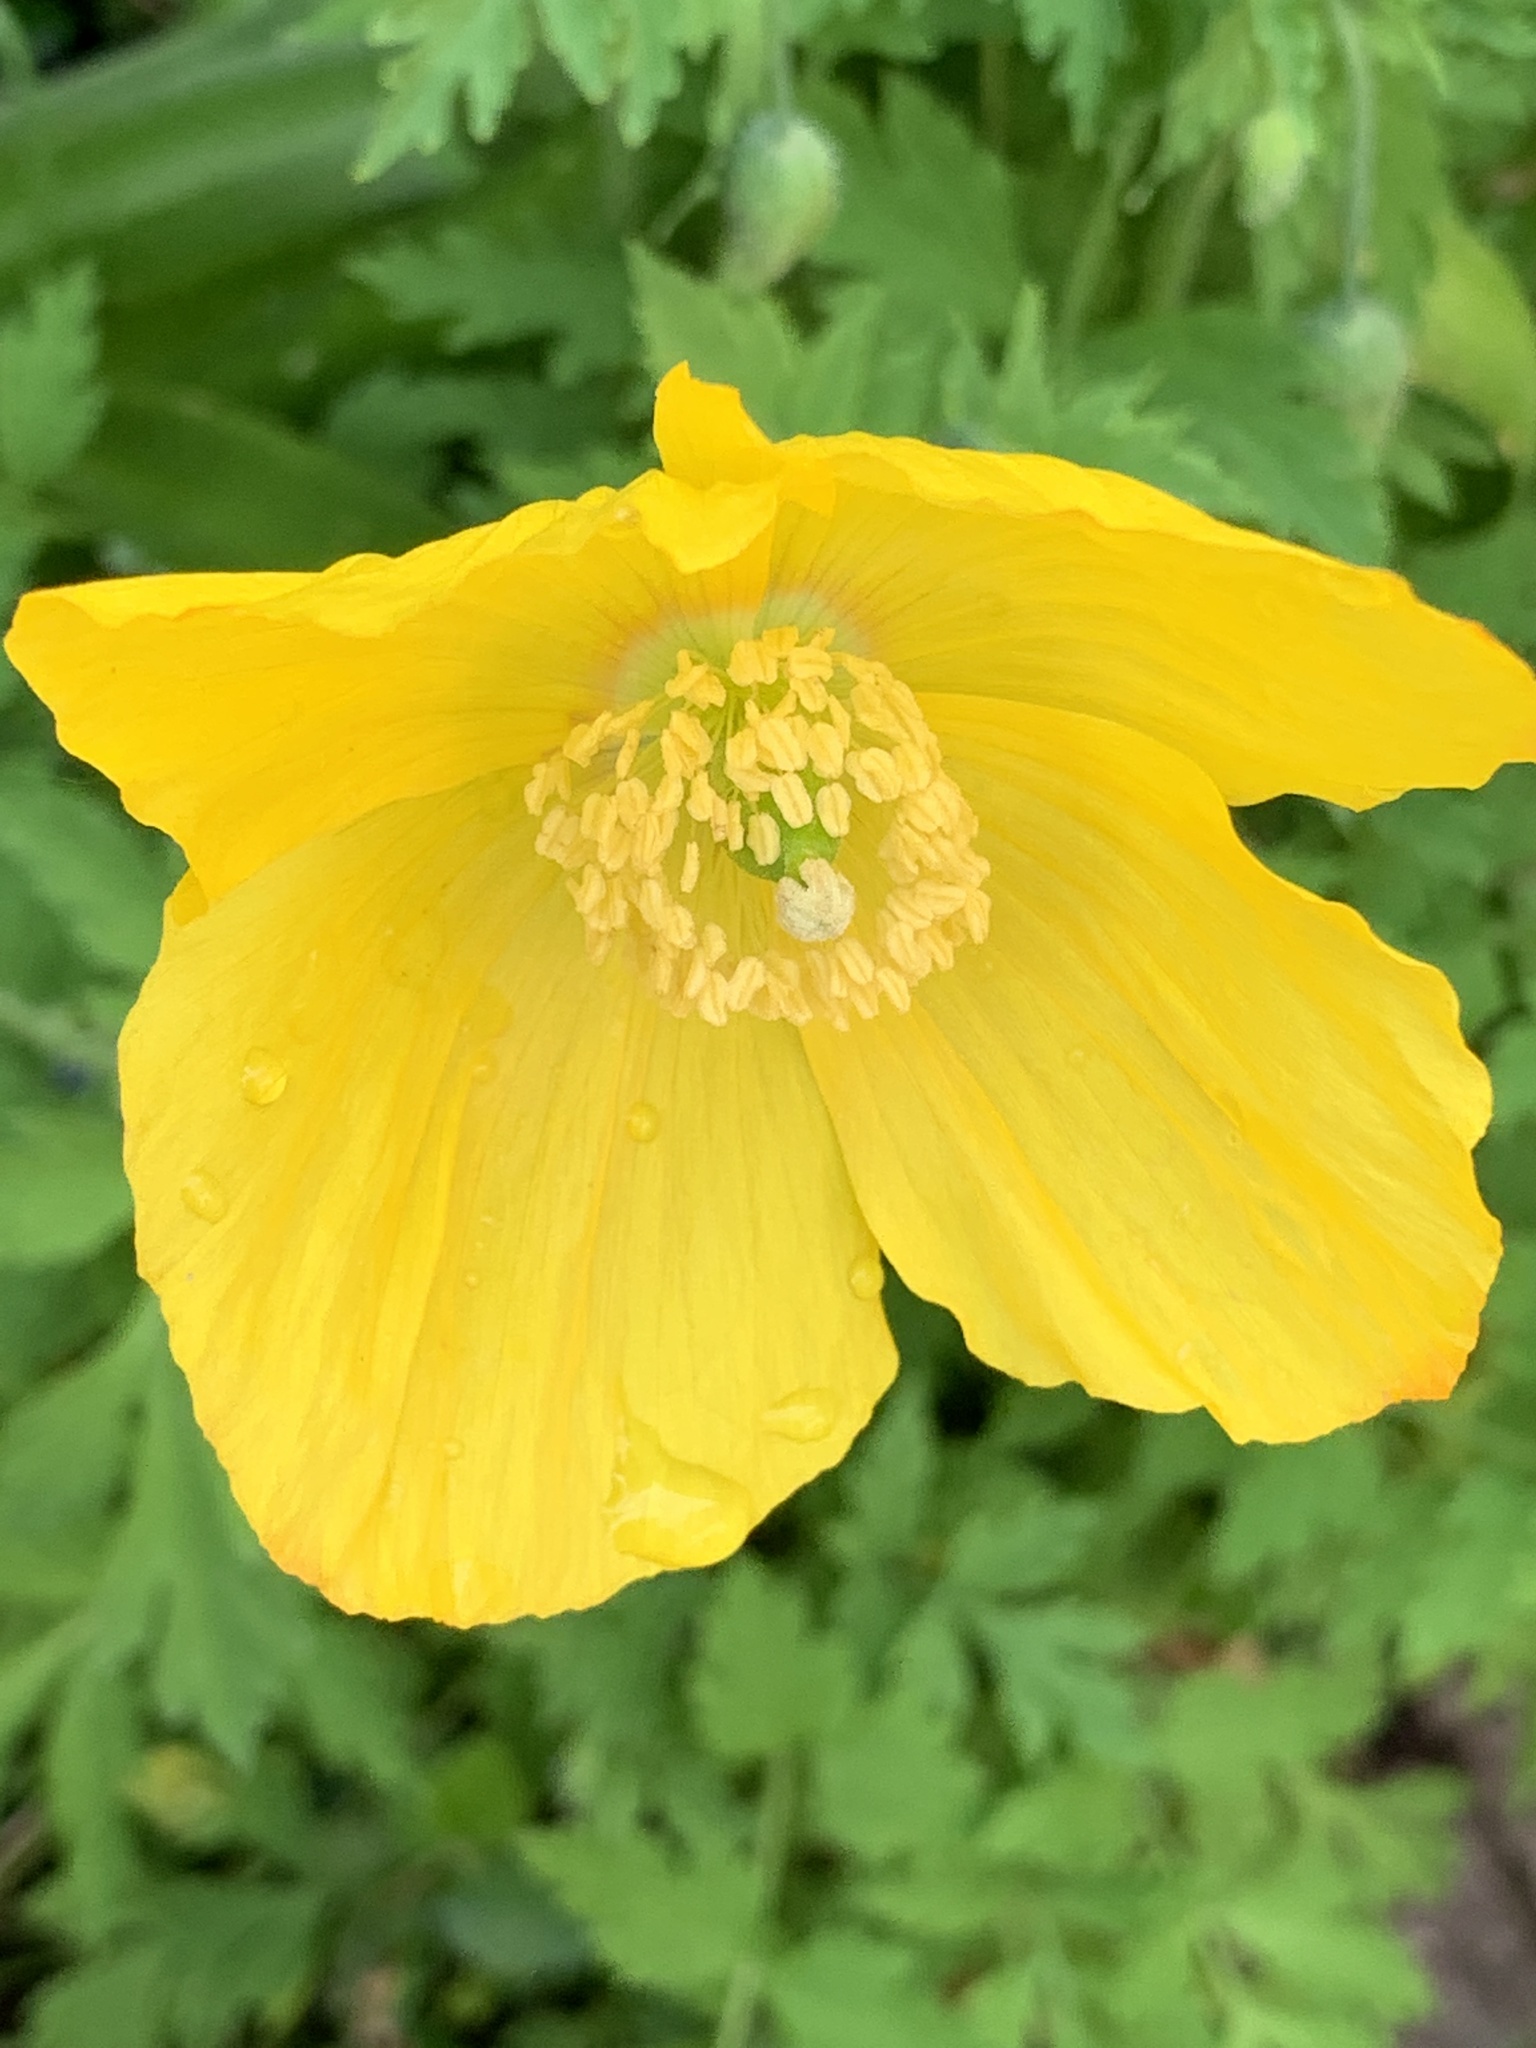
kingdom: Plantae
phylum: Tracheophyta
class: Magnoliopsida
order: Ranunculales
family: Papaveraceae
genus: Papaver
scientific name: Papaver cambricum
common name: Poppy
